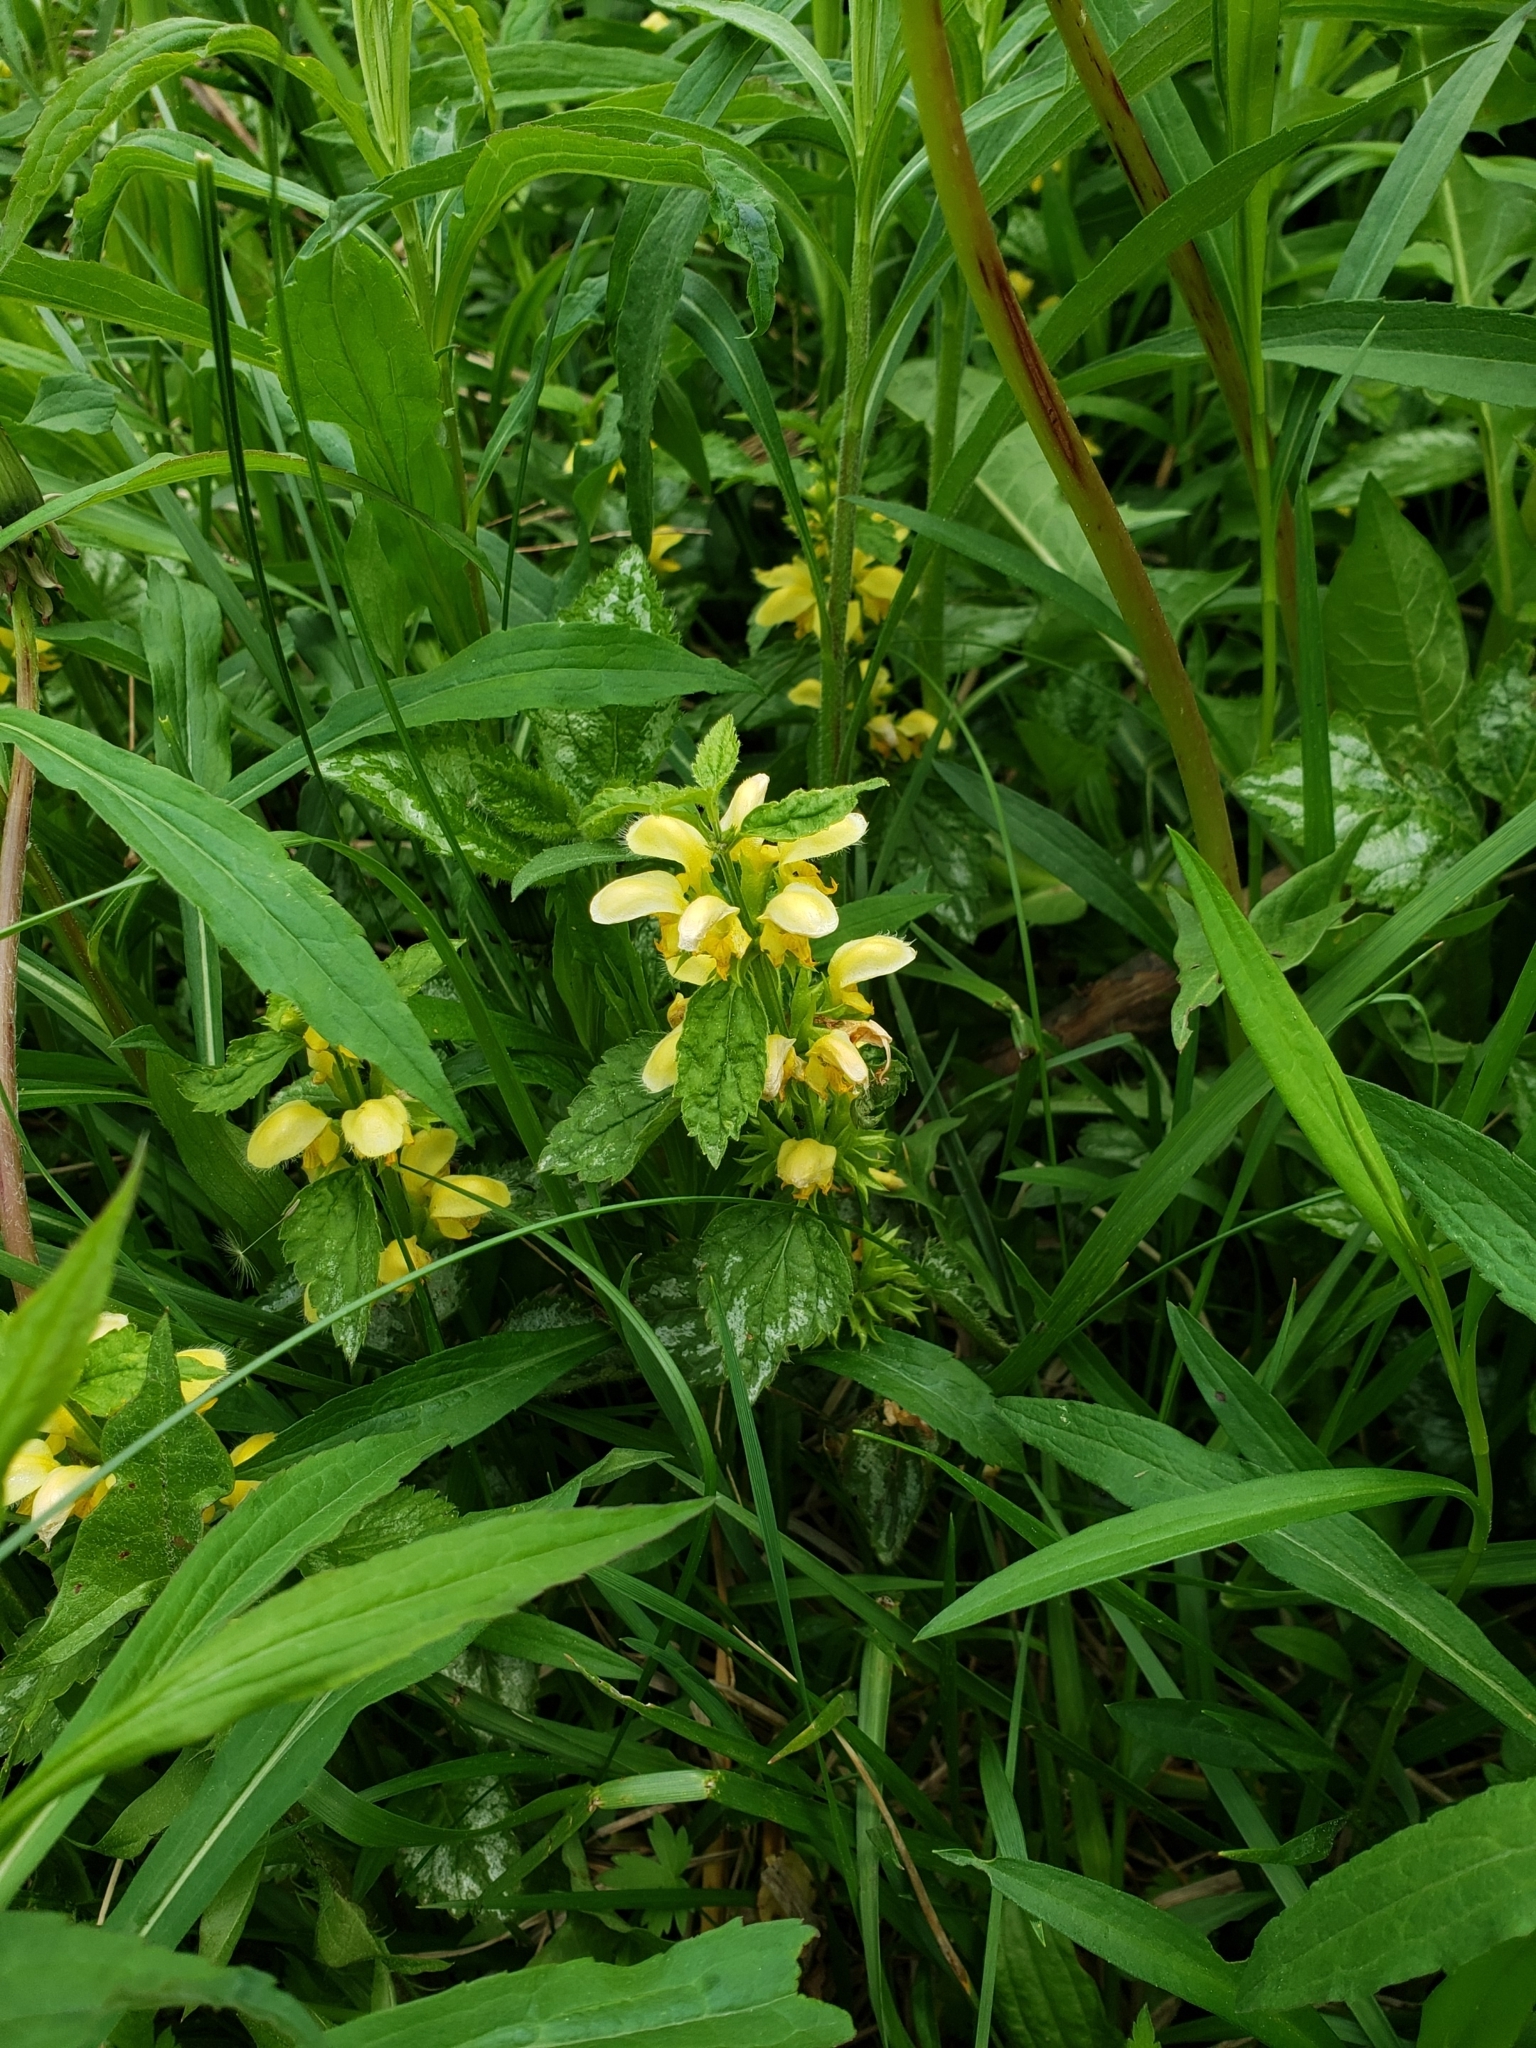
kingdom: Plantae
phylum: Tracheophyta
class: Magnoliopsida
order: Lamiales
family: Lamiaceae
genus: Lamium
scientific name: Lamium galeobdolon
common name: Yellow archangel
